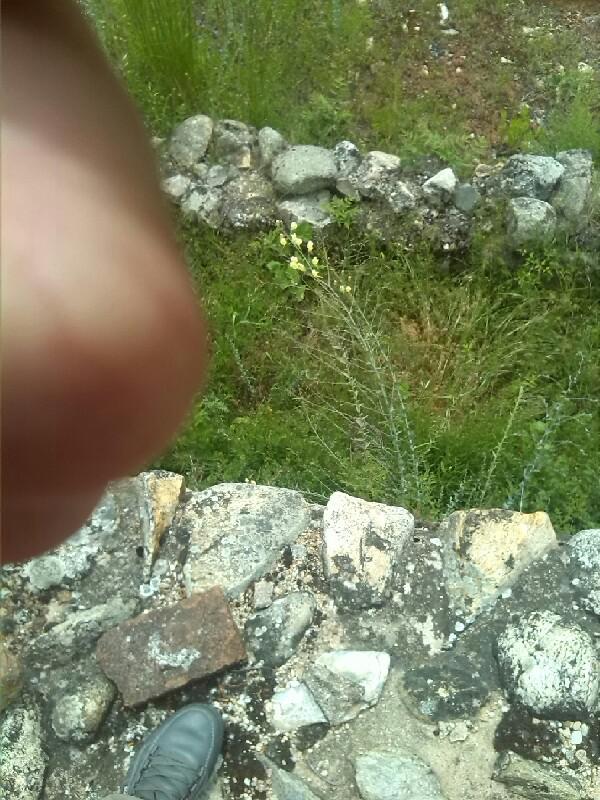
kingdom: Plantae
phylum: Tracheophyta
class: Magnoliopsida
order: Lamiales
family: Plantaginaceae
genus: Linaria
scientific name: Linaria vulgaris
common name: Butter and eggs
